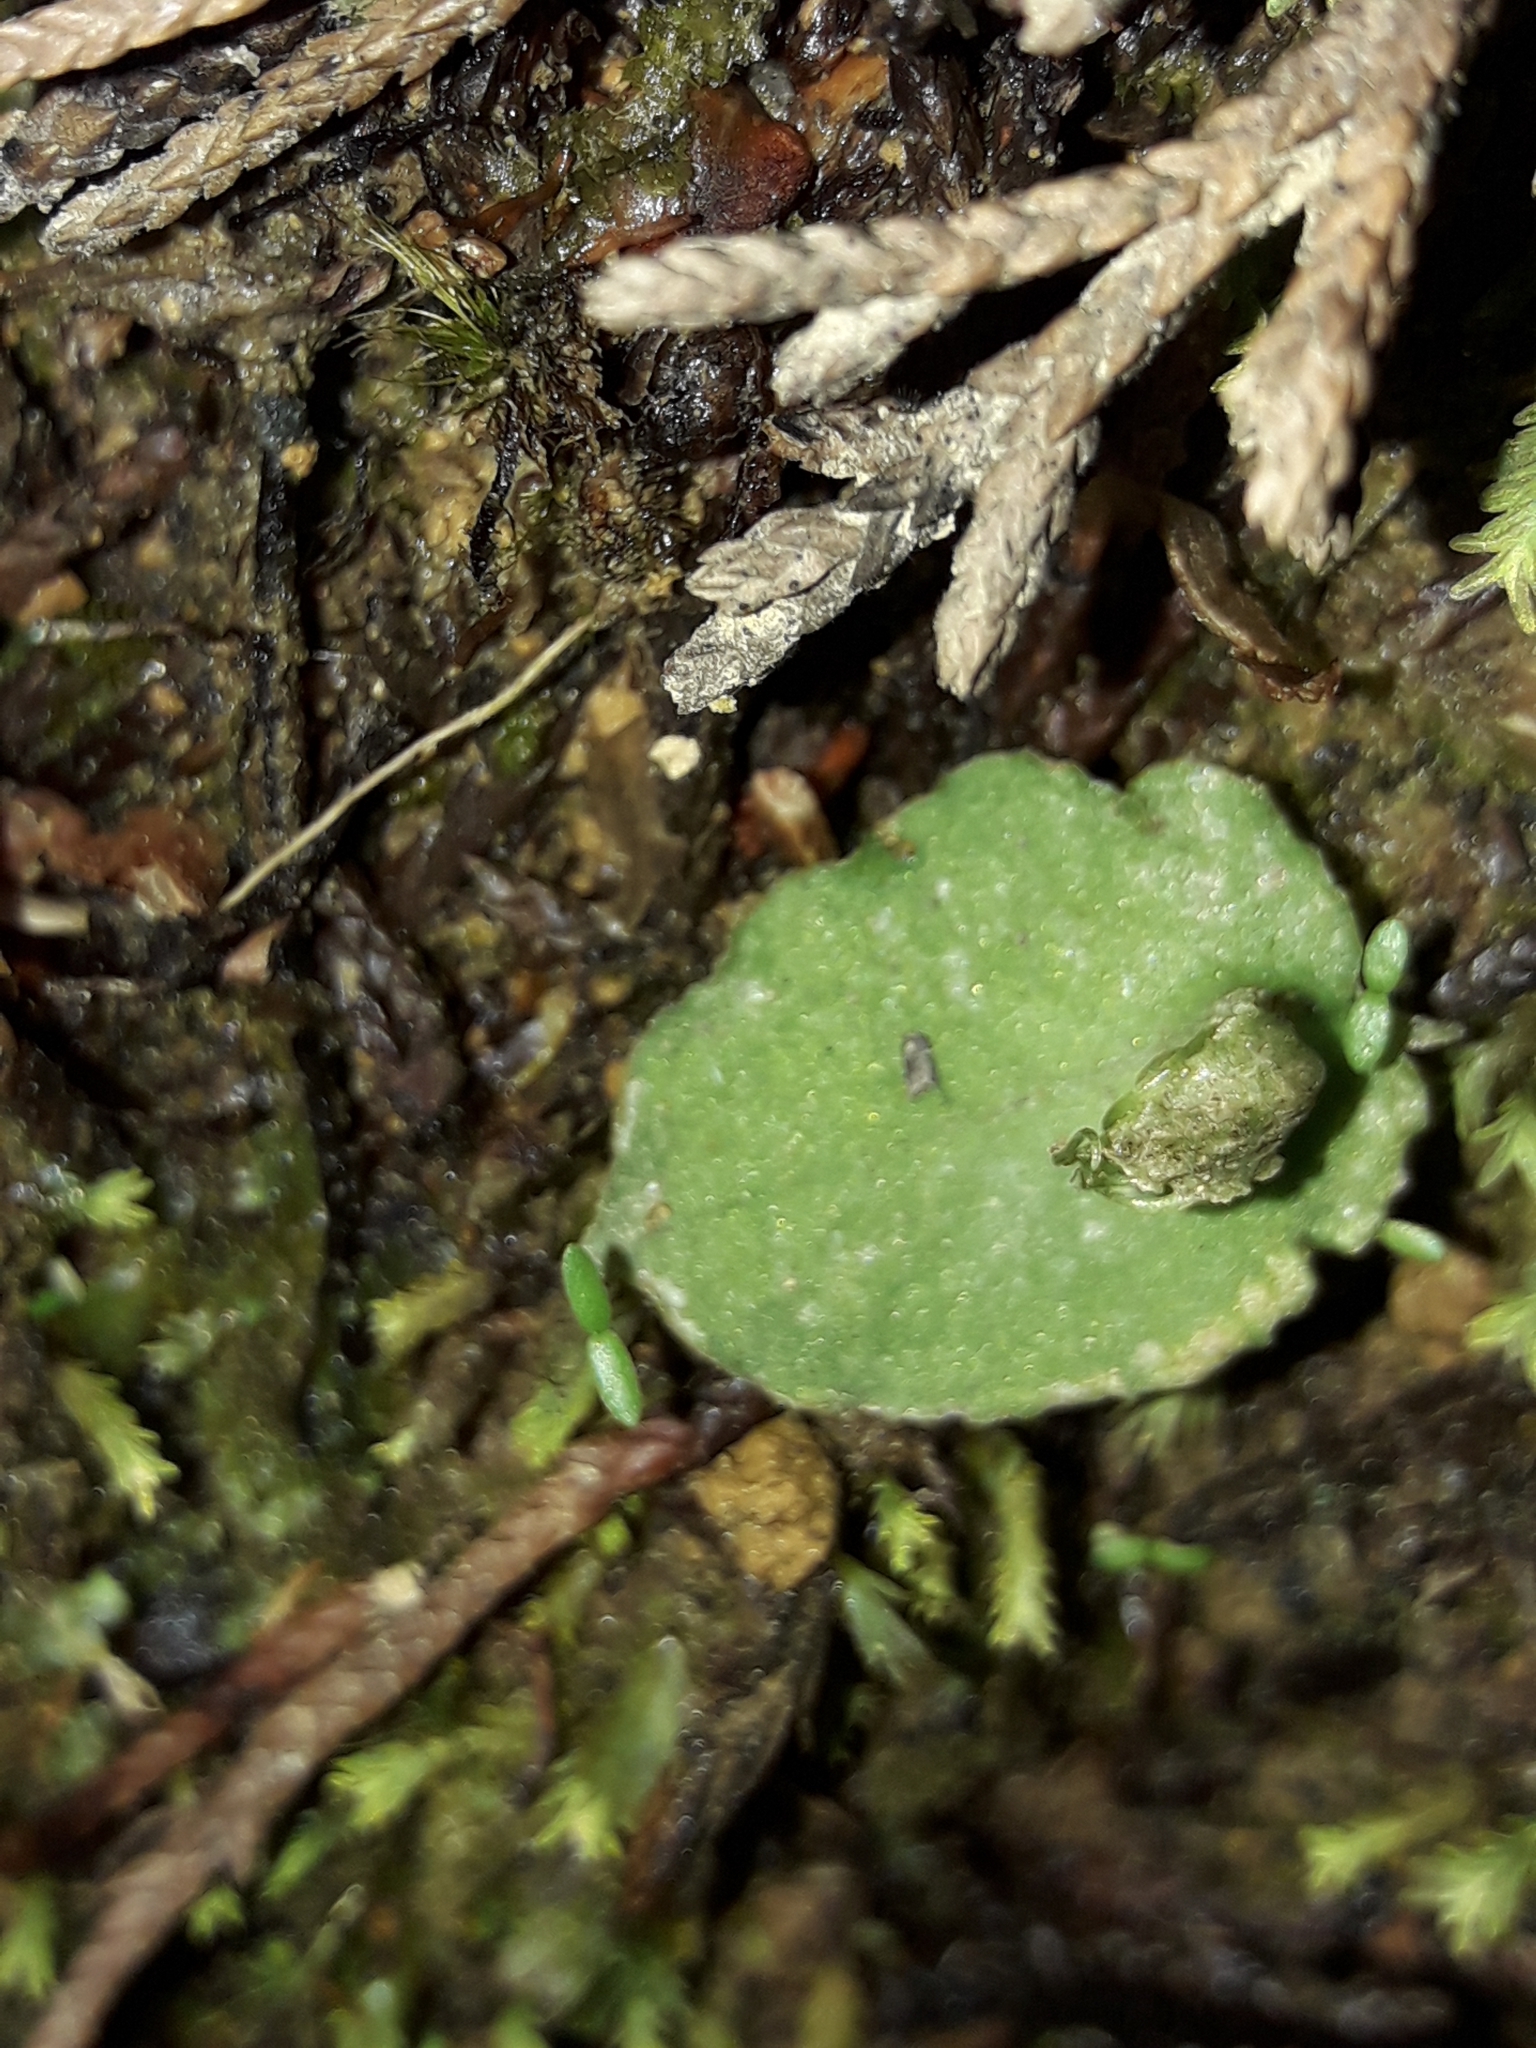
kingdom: Plantae
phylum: Tracheophyta
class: Liliopsida
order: Asparagales
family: Orchidaceae
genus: Corybas
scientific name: Corybas oblongus
